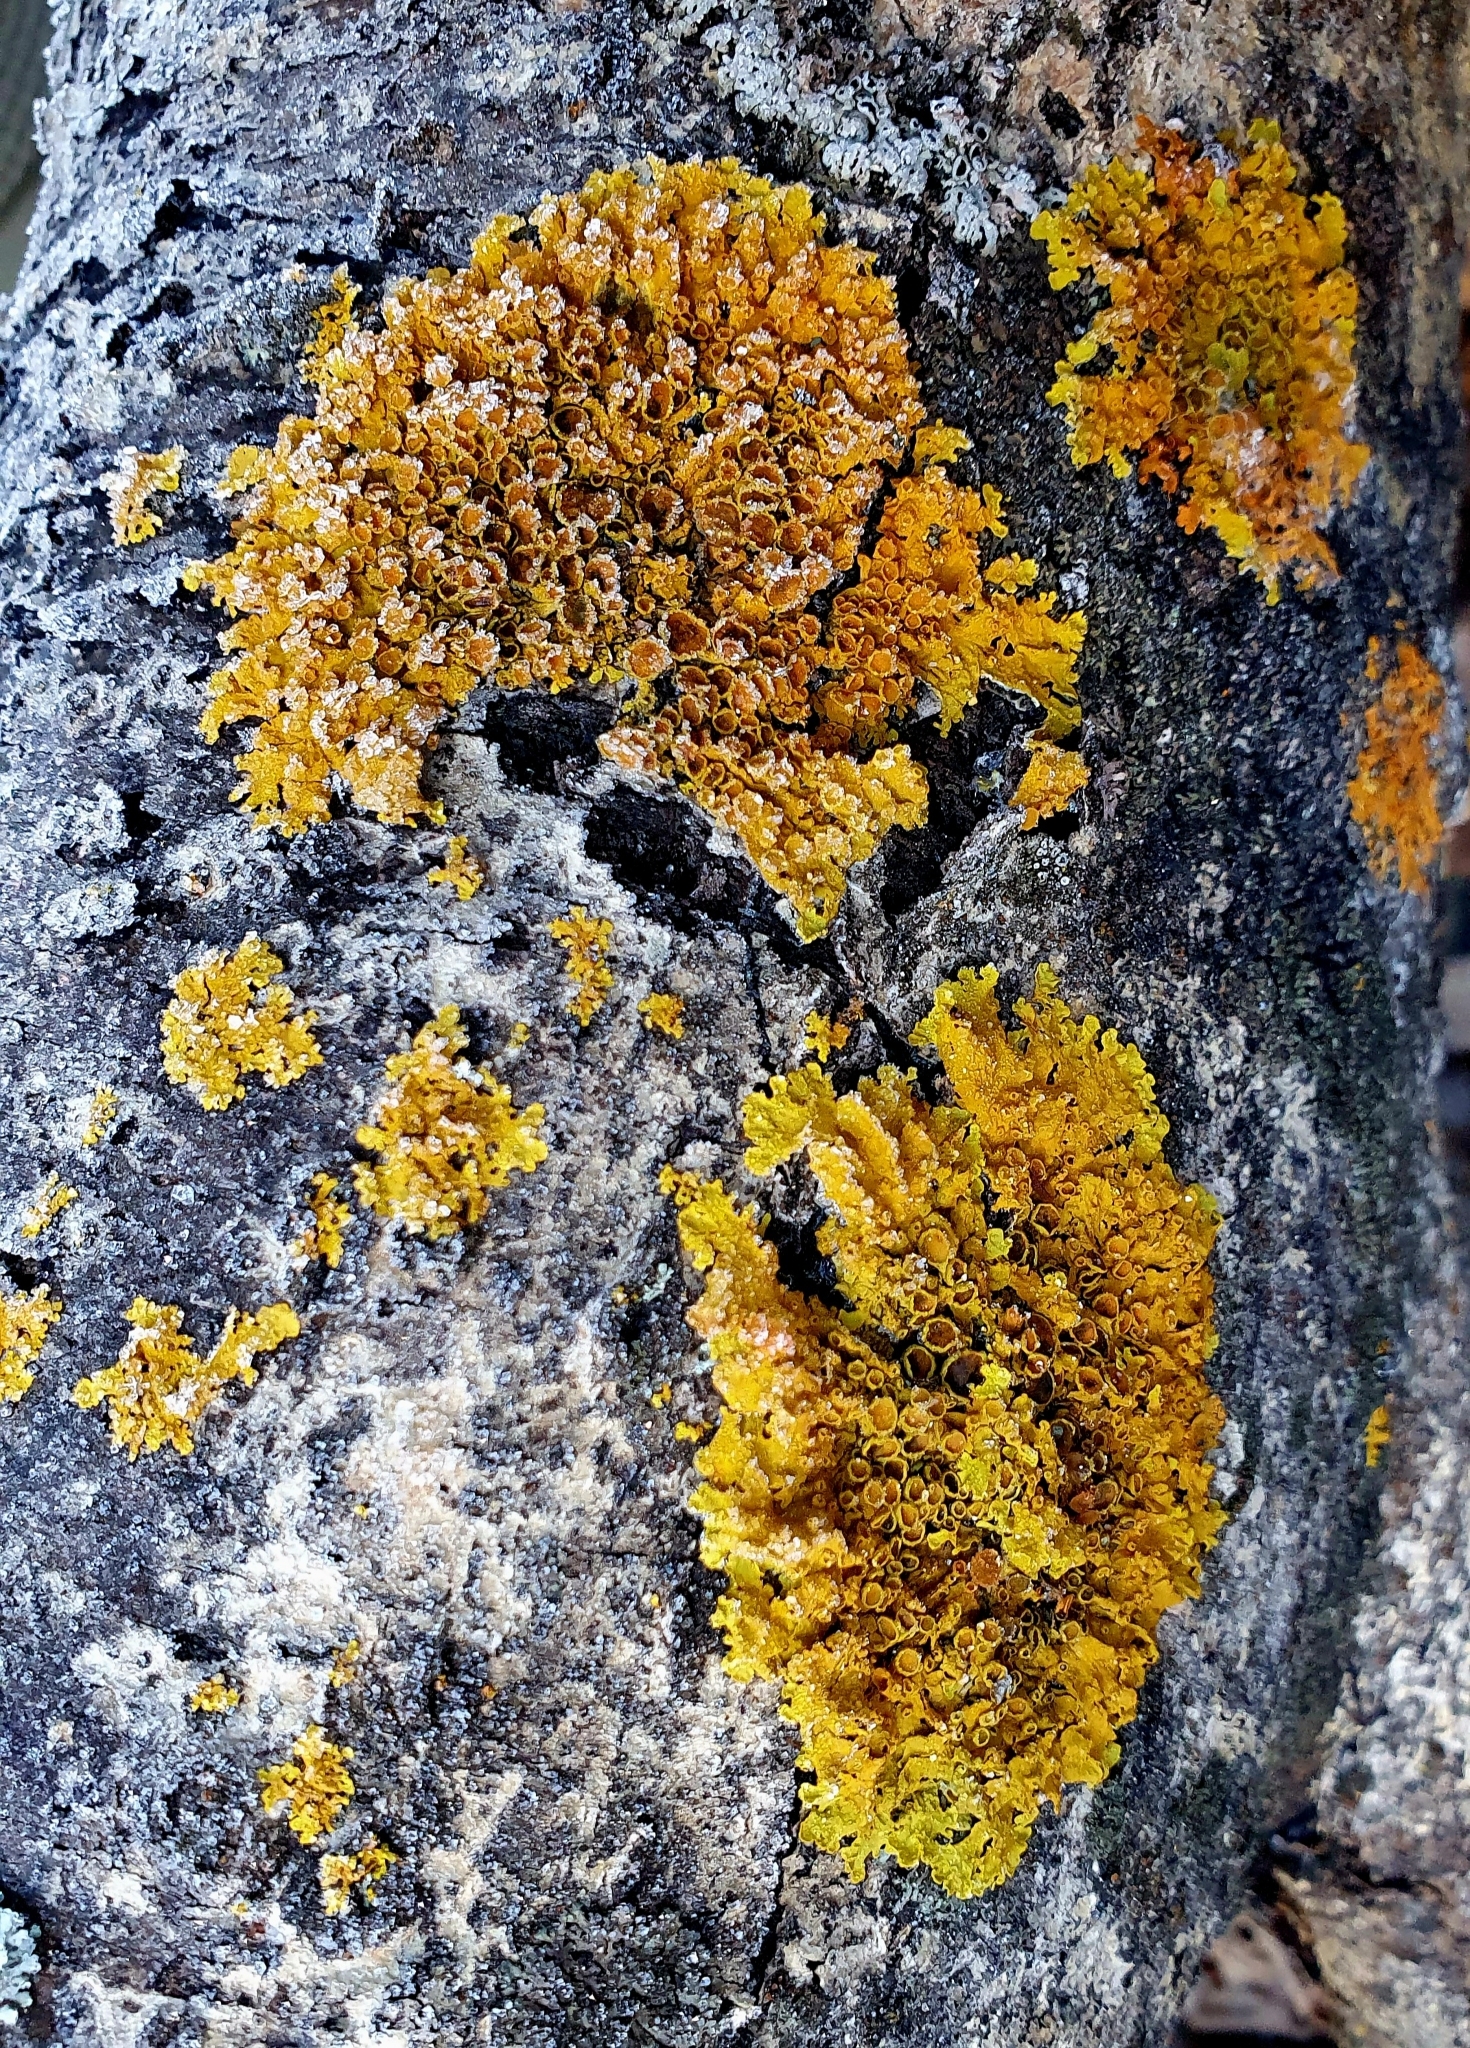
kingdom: Fungi
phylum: Ascomycota
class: Lecanoromycetes
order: Teloschistales
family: Teloschistaceae
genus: Xanthoria
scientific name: Xanthoria parietina
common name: Common orange lichen
